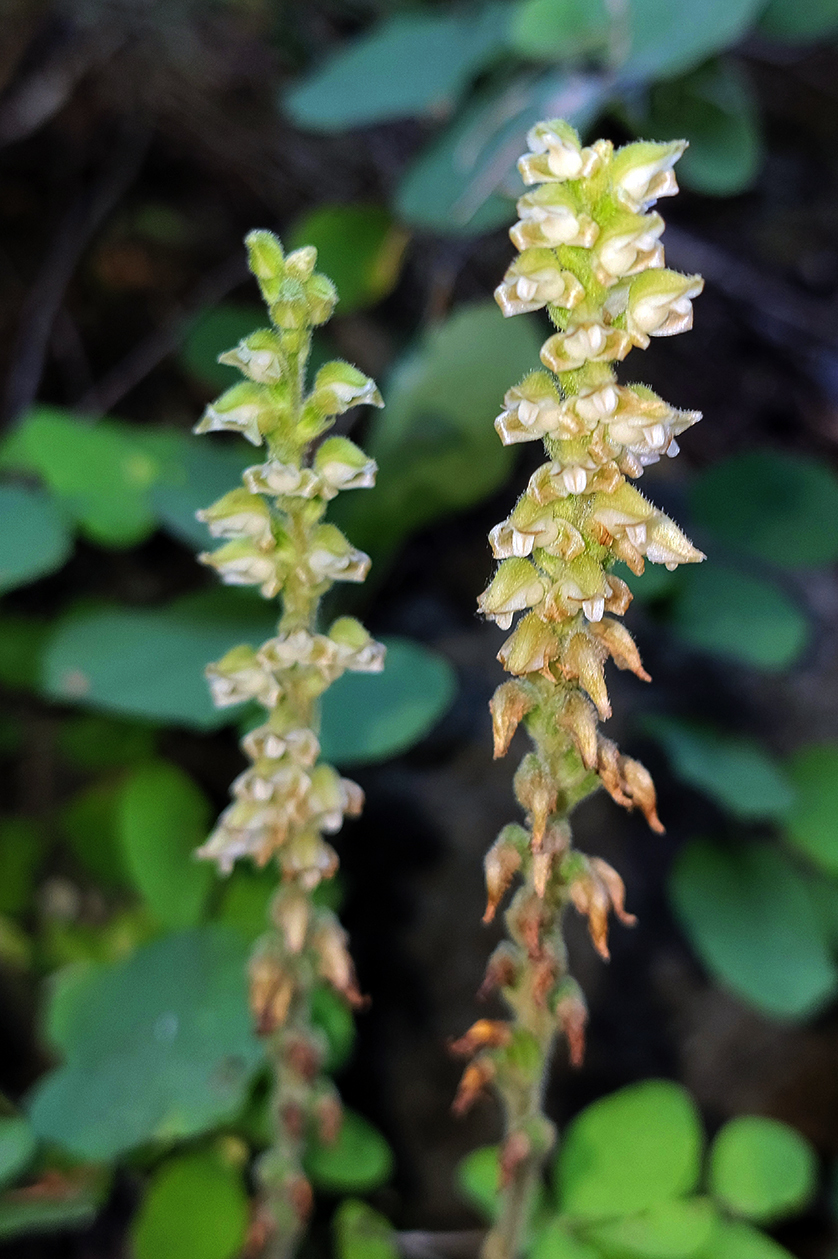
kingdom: Plantae
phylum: Tracheophyta
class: Liliopsida
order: Asparagales
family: Orchidaceae
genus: Goodyera
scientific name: Goodyera oblongifolia
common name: Giant rattlesnake-plantain
